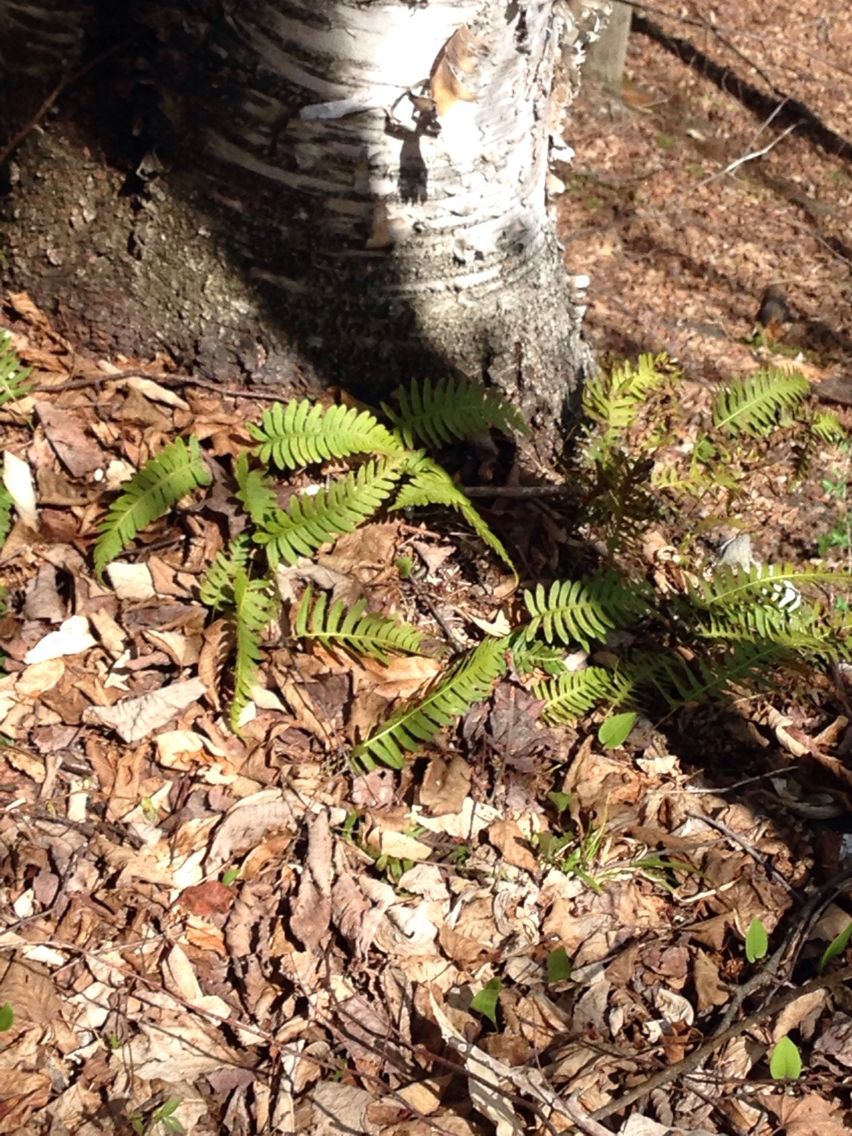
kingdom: Plantae
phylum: Tracheophyta
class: Polypodiopsida
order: Polypodiales
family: Polypodiaceae
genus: Polypodium
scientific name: Polypodium virginianum
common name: American wall fern
